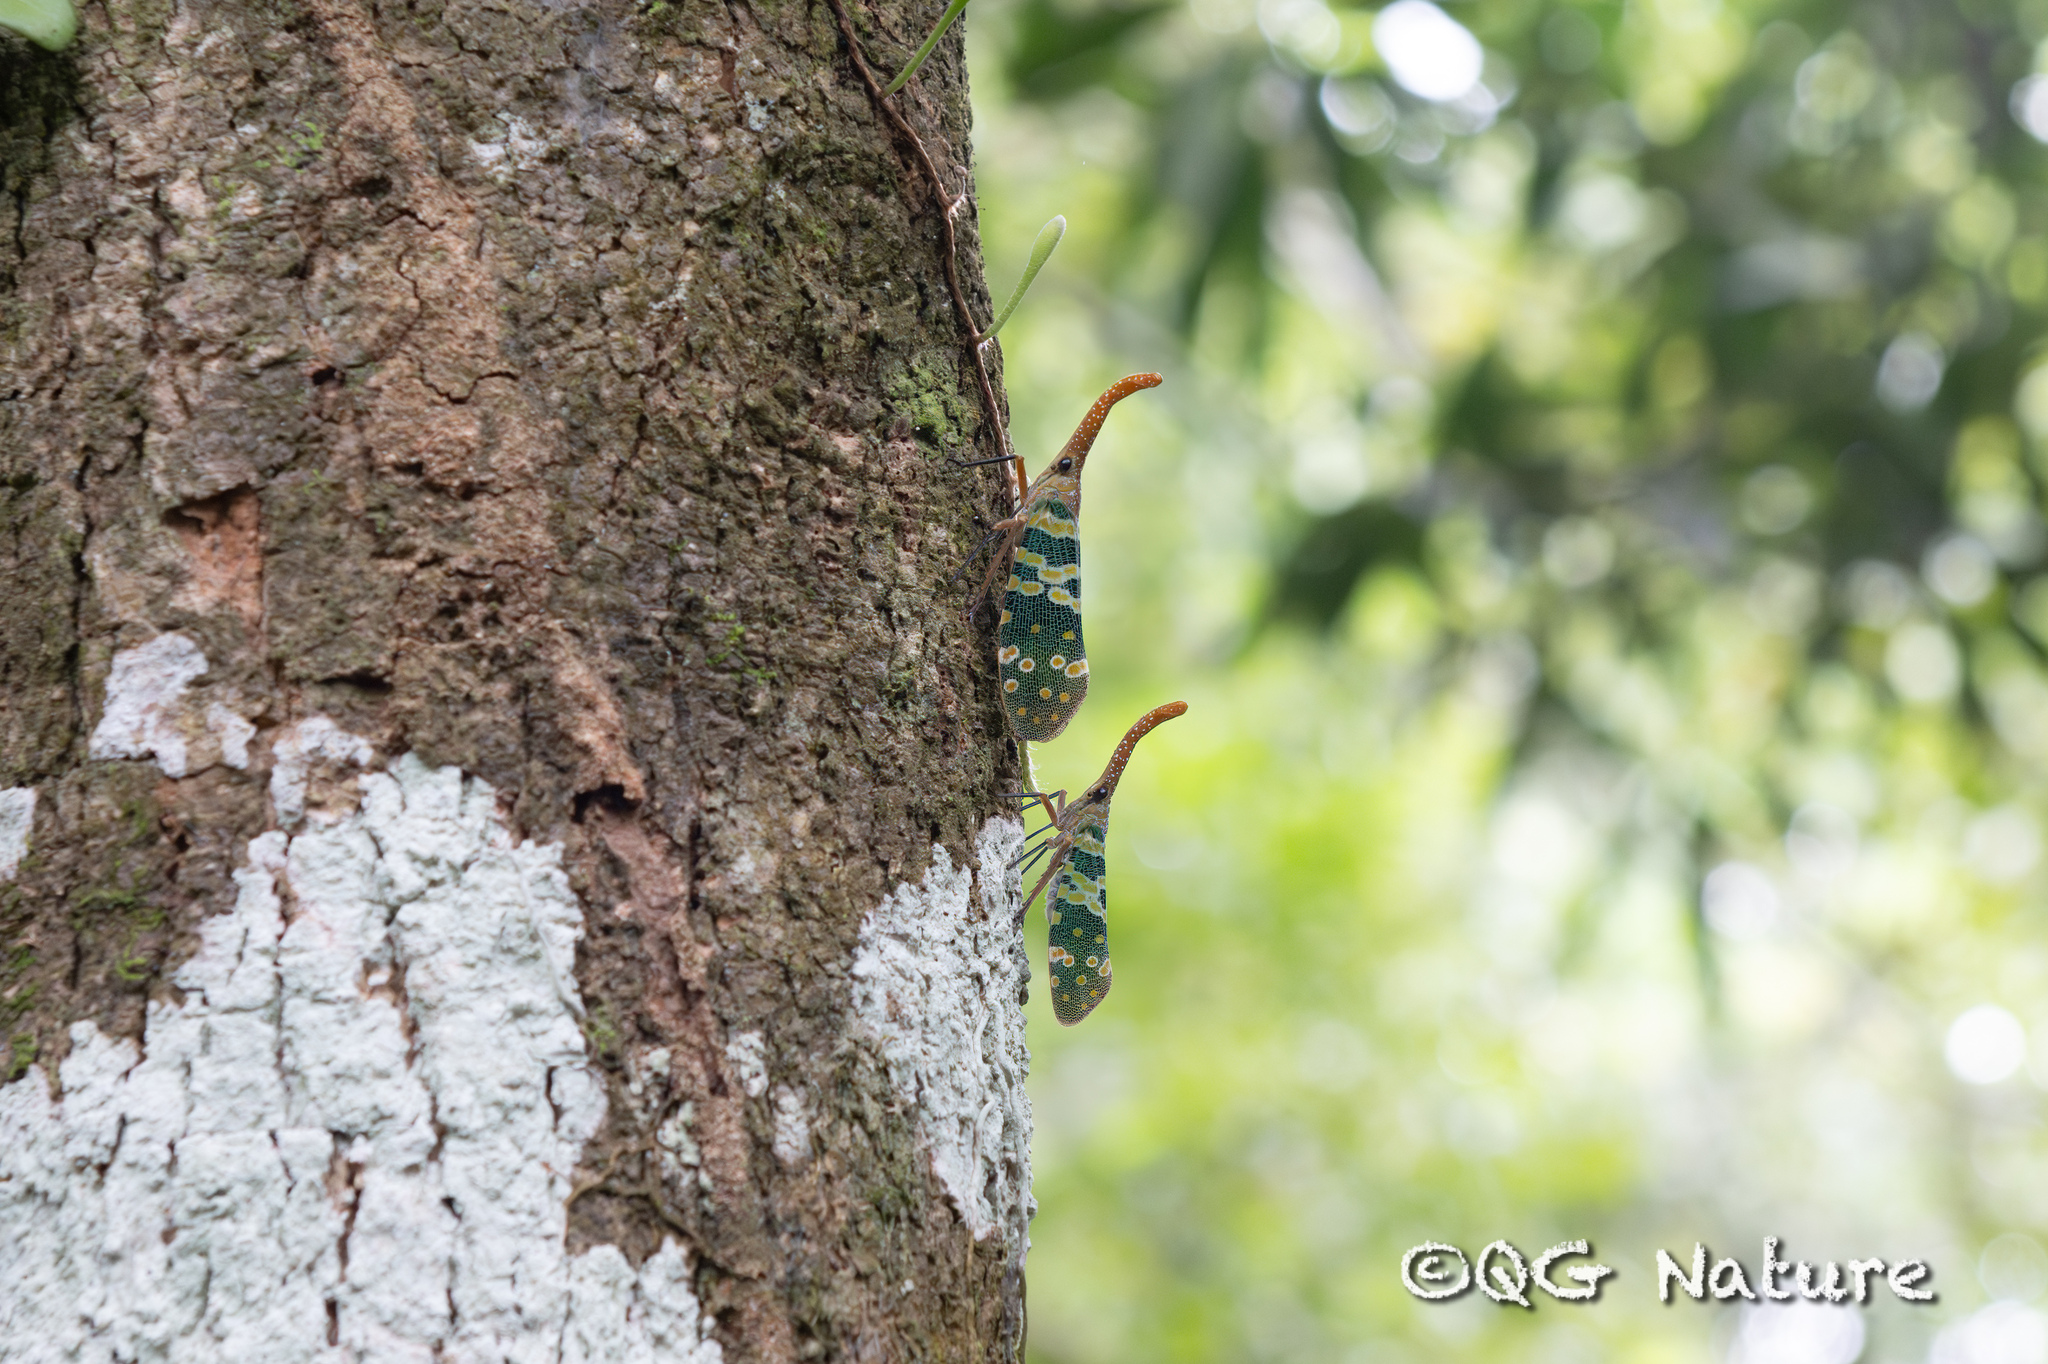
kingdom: Animalia
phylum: Arthropoda
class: Insecta
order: Hemiptera
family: Fulgoridae
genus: Pyrops
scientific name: Pyrops candelaria
